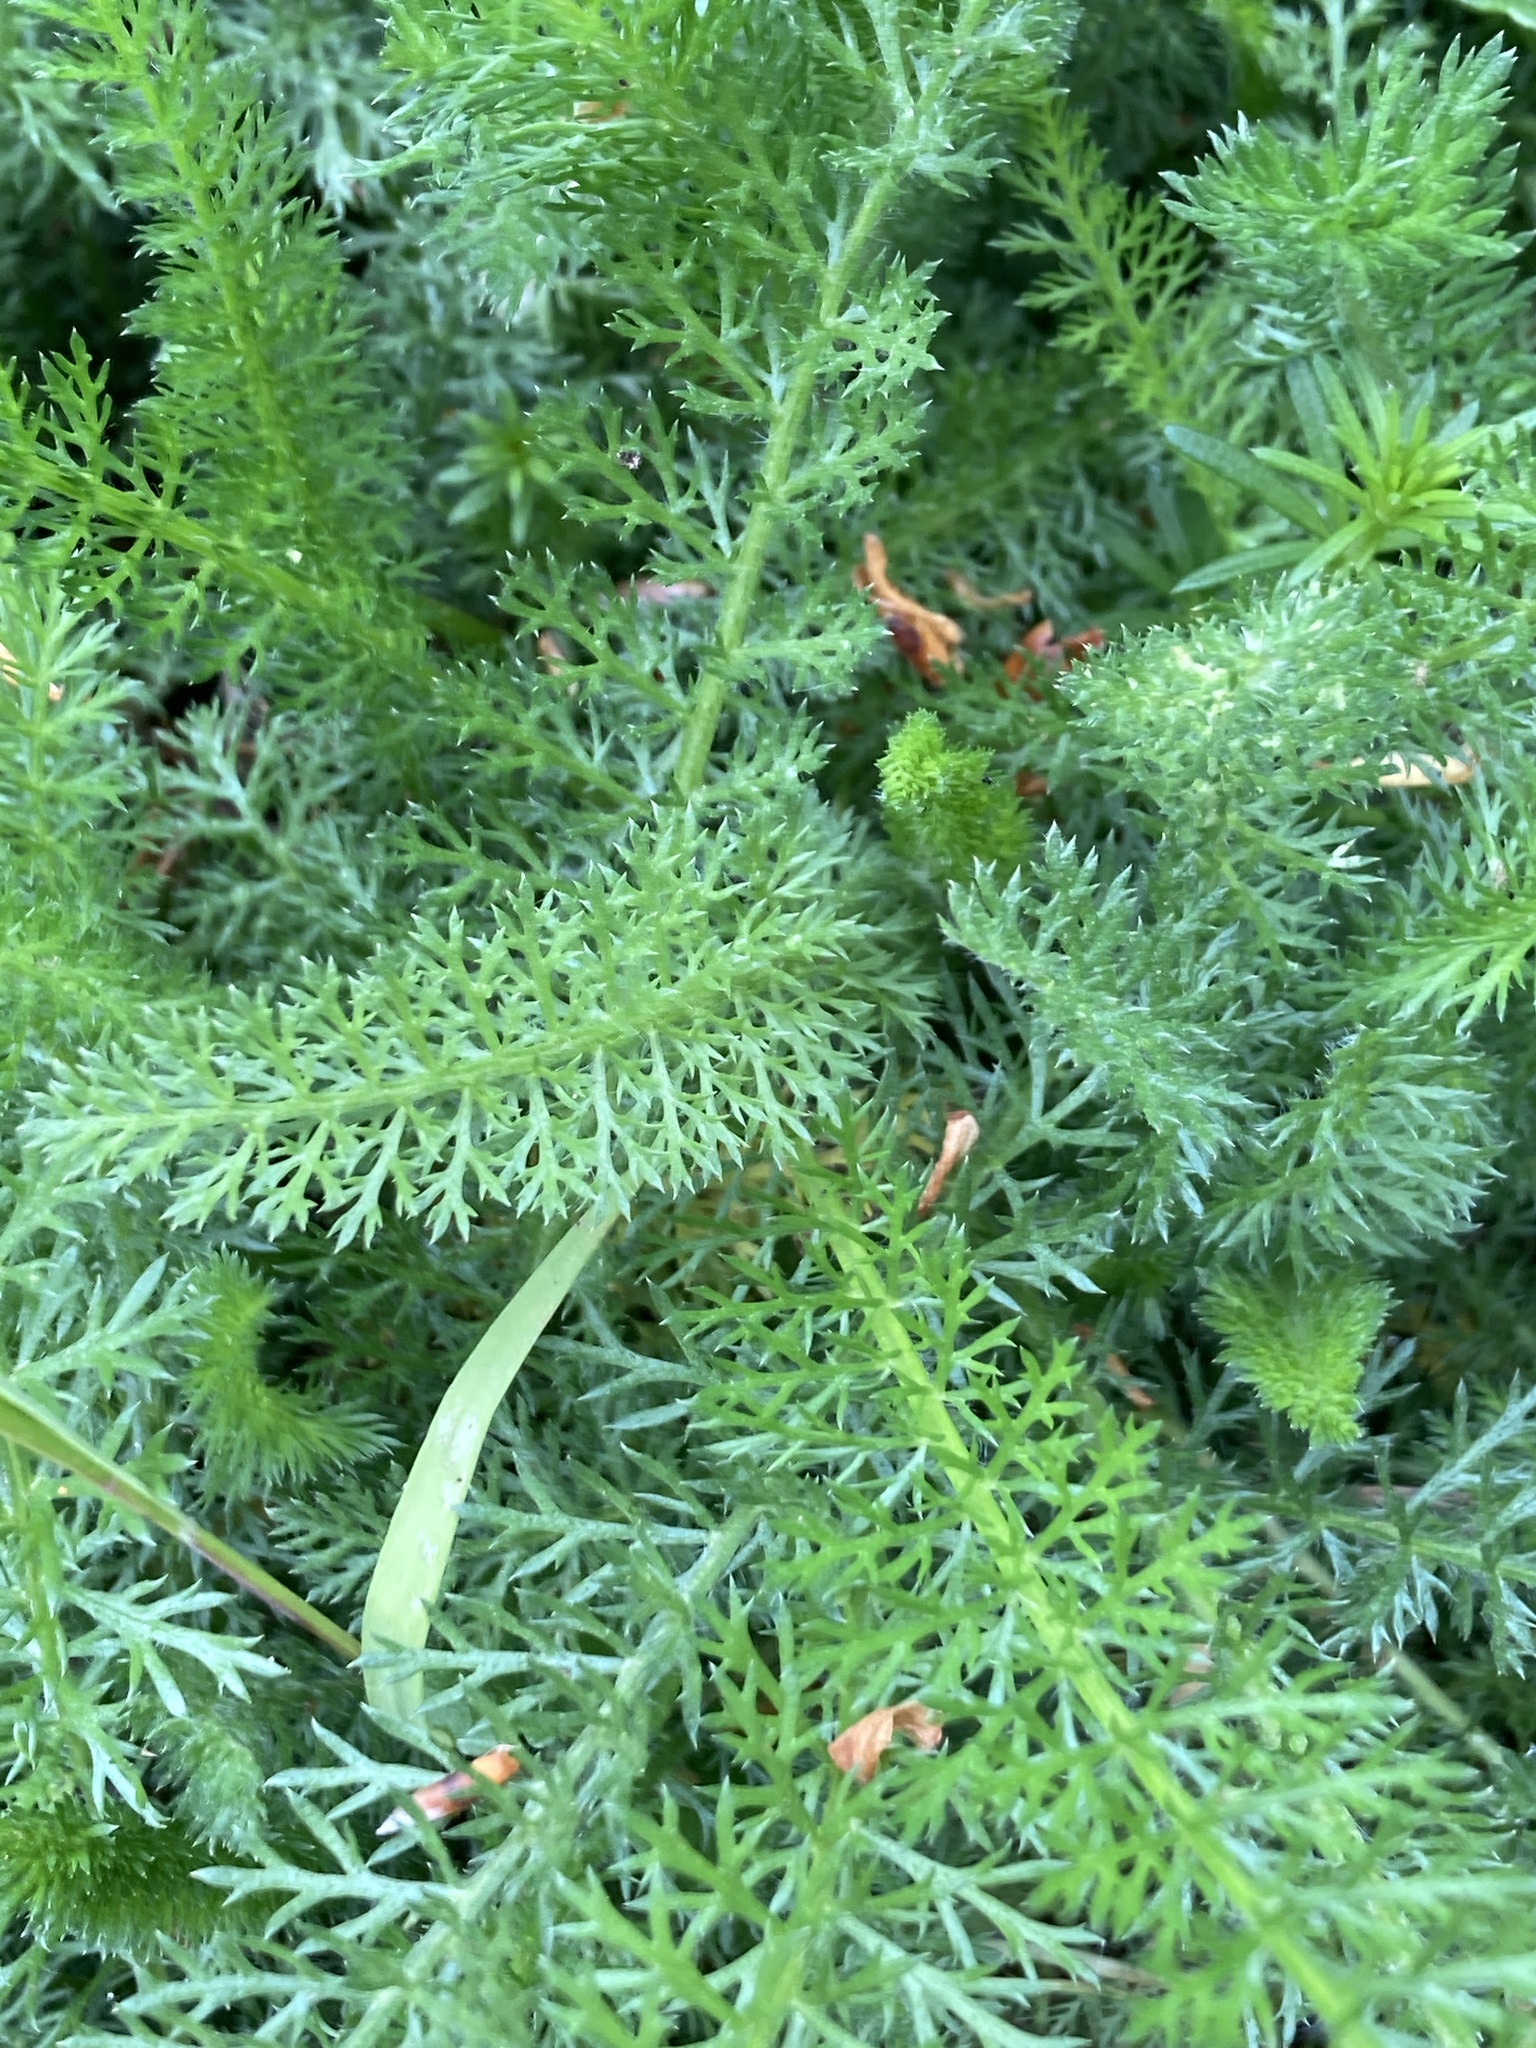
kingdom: Plantae
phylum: Tracheophyta
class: Magnoliopsida
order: Asterales
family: Asteraceae
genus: Achillea
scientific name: Achillea millefolium
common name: Yarrow
